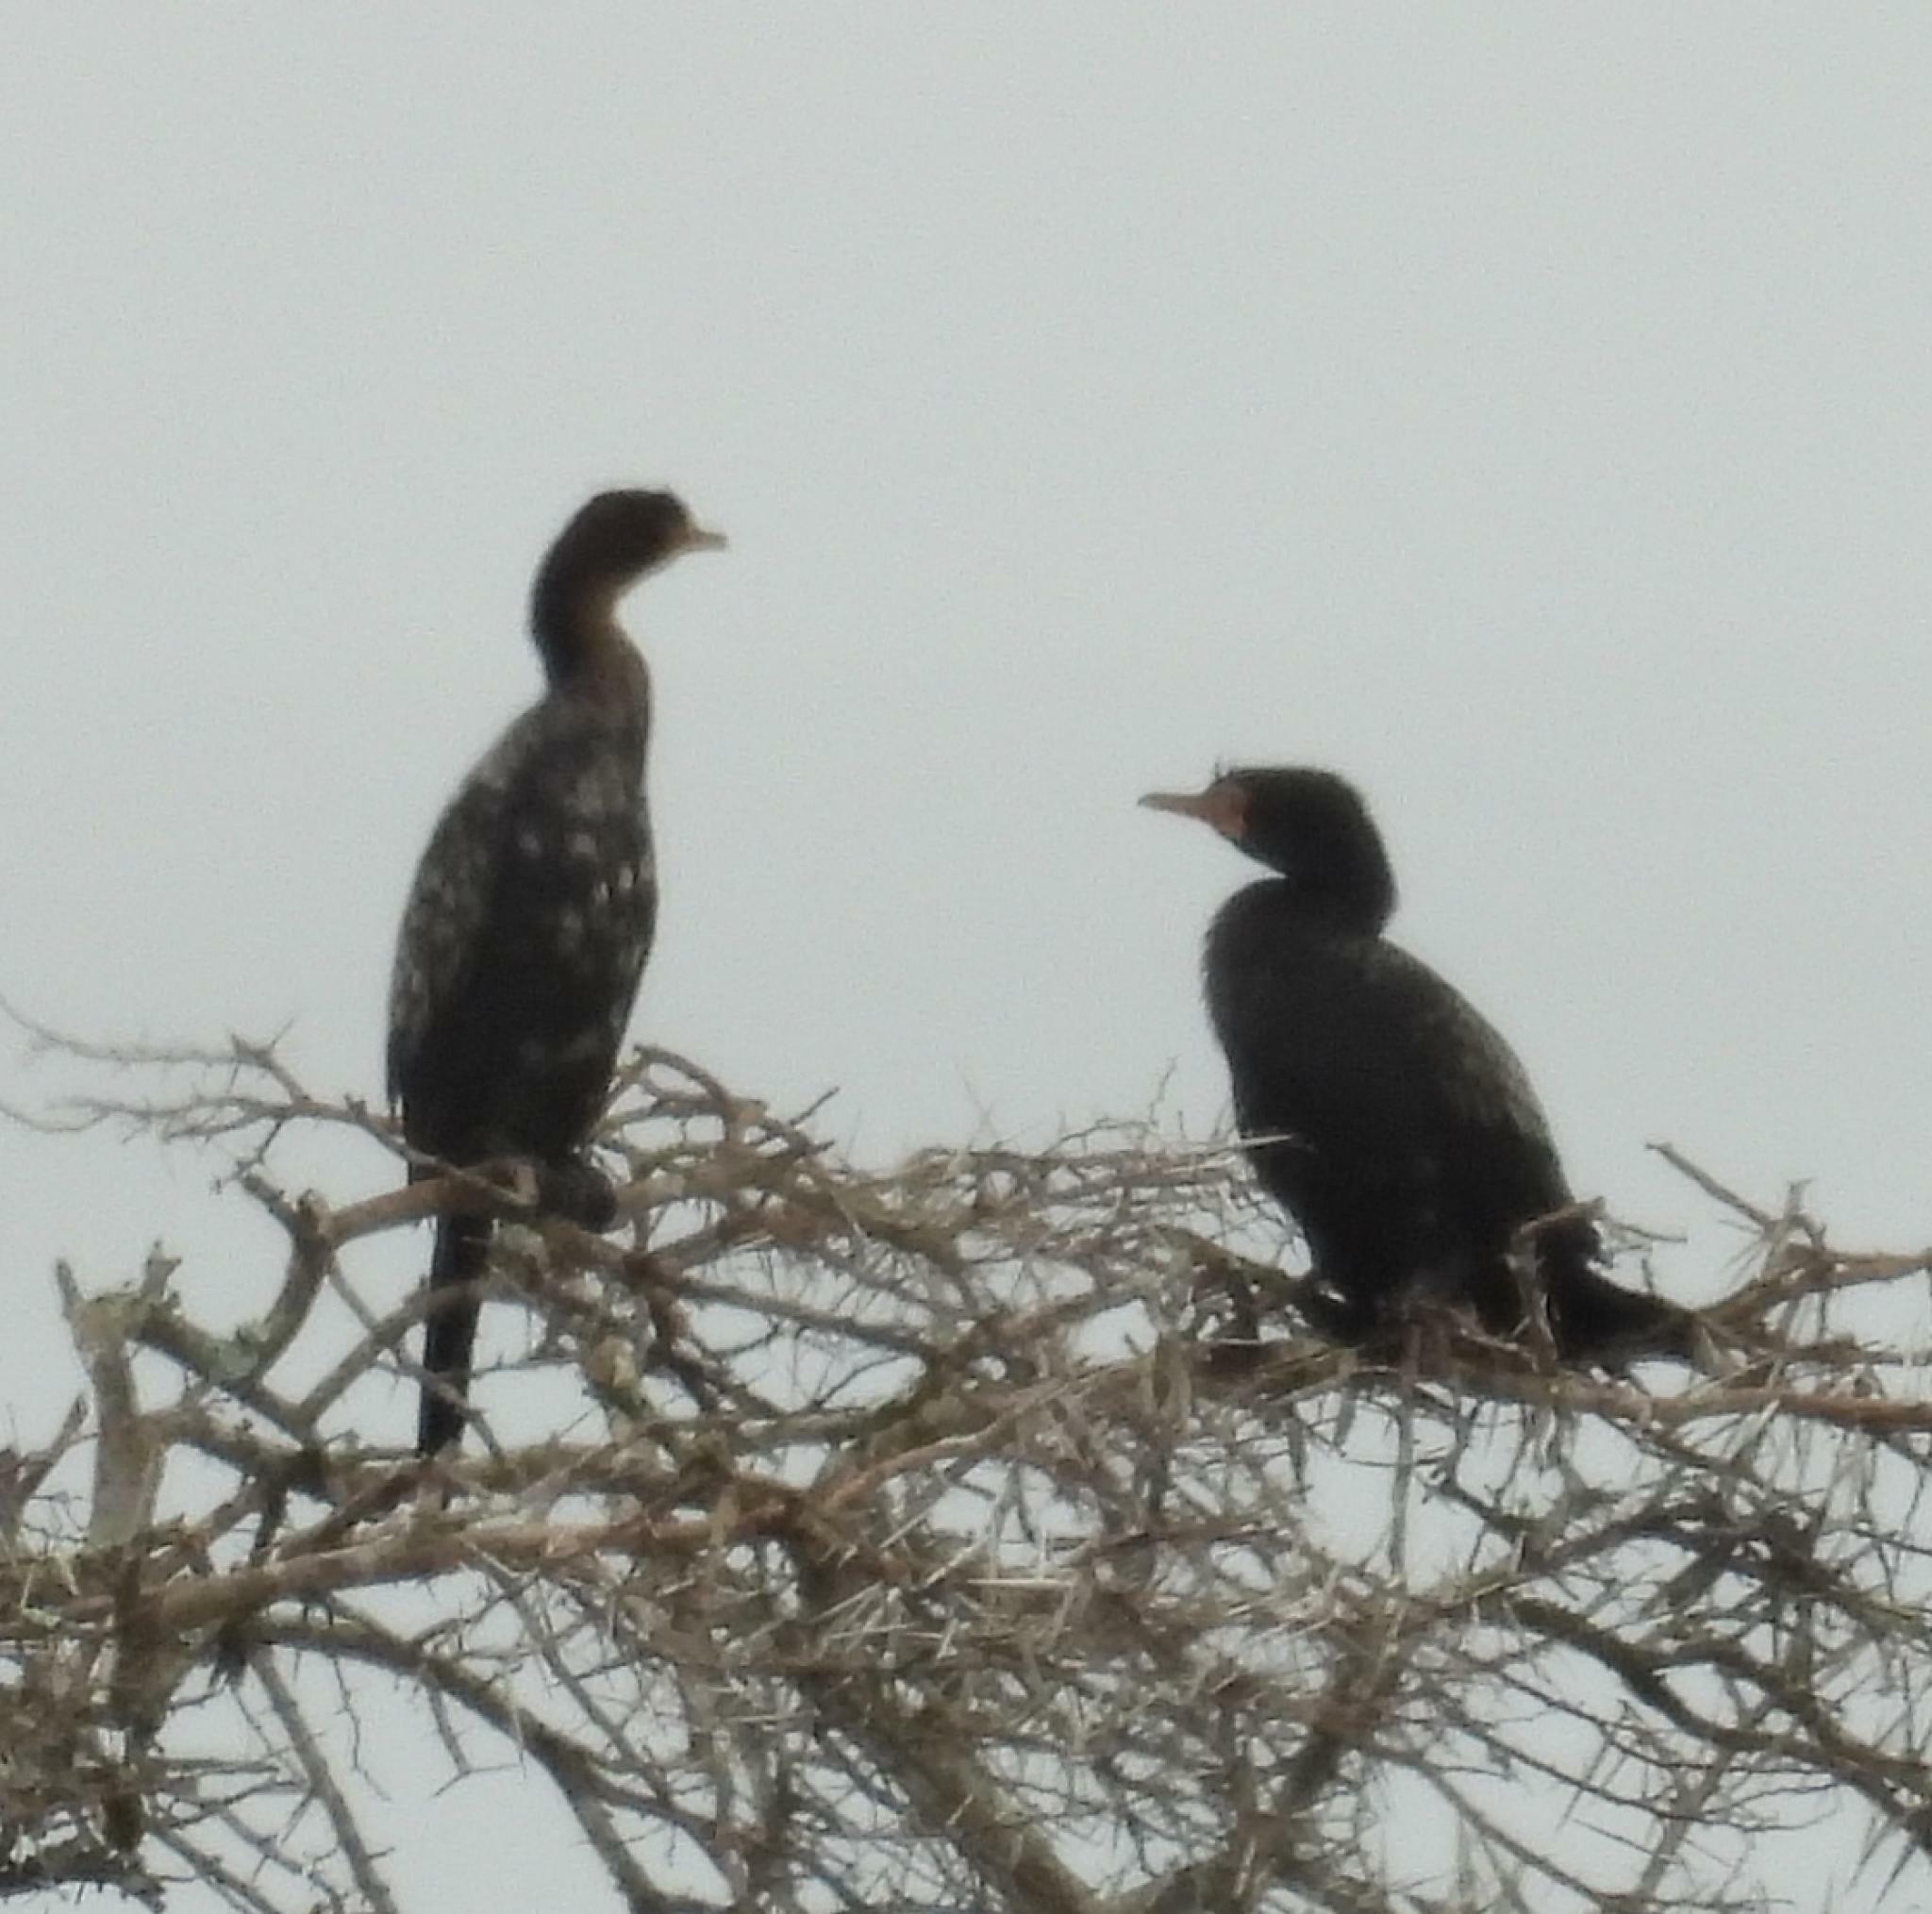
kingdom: Animalia
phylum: Chordata
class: Aves
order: Suliformes
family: Phalacrocoracidae
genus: Microcarbo
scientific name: Microcarbo africanus
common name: Long-tailed cormorant
